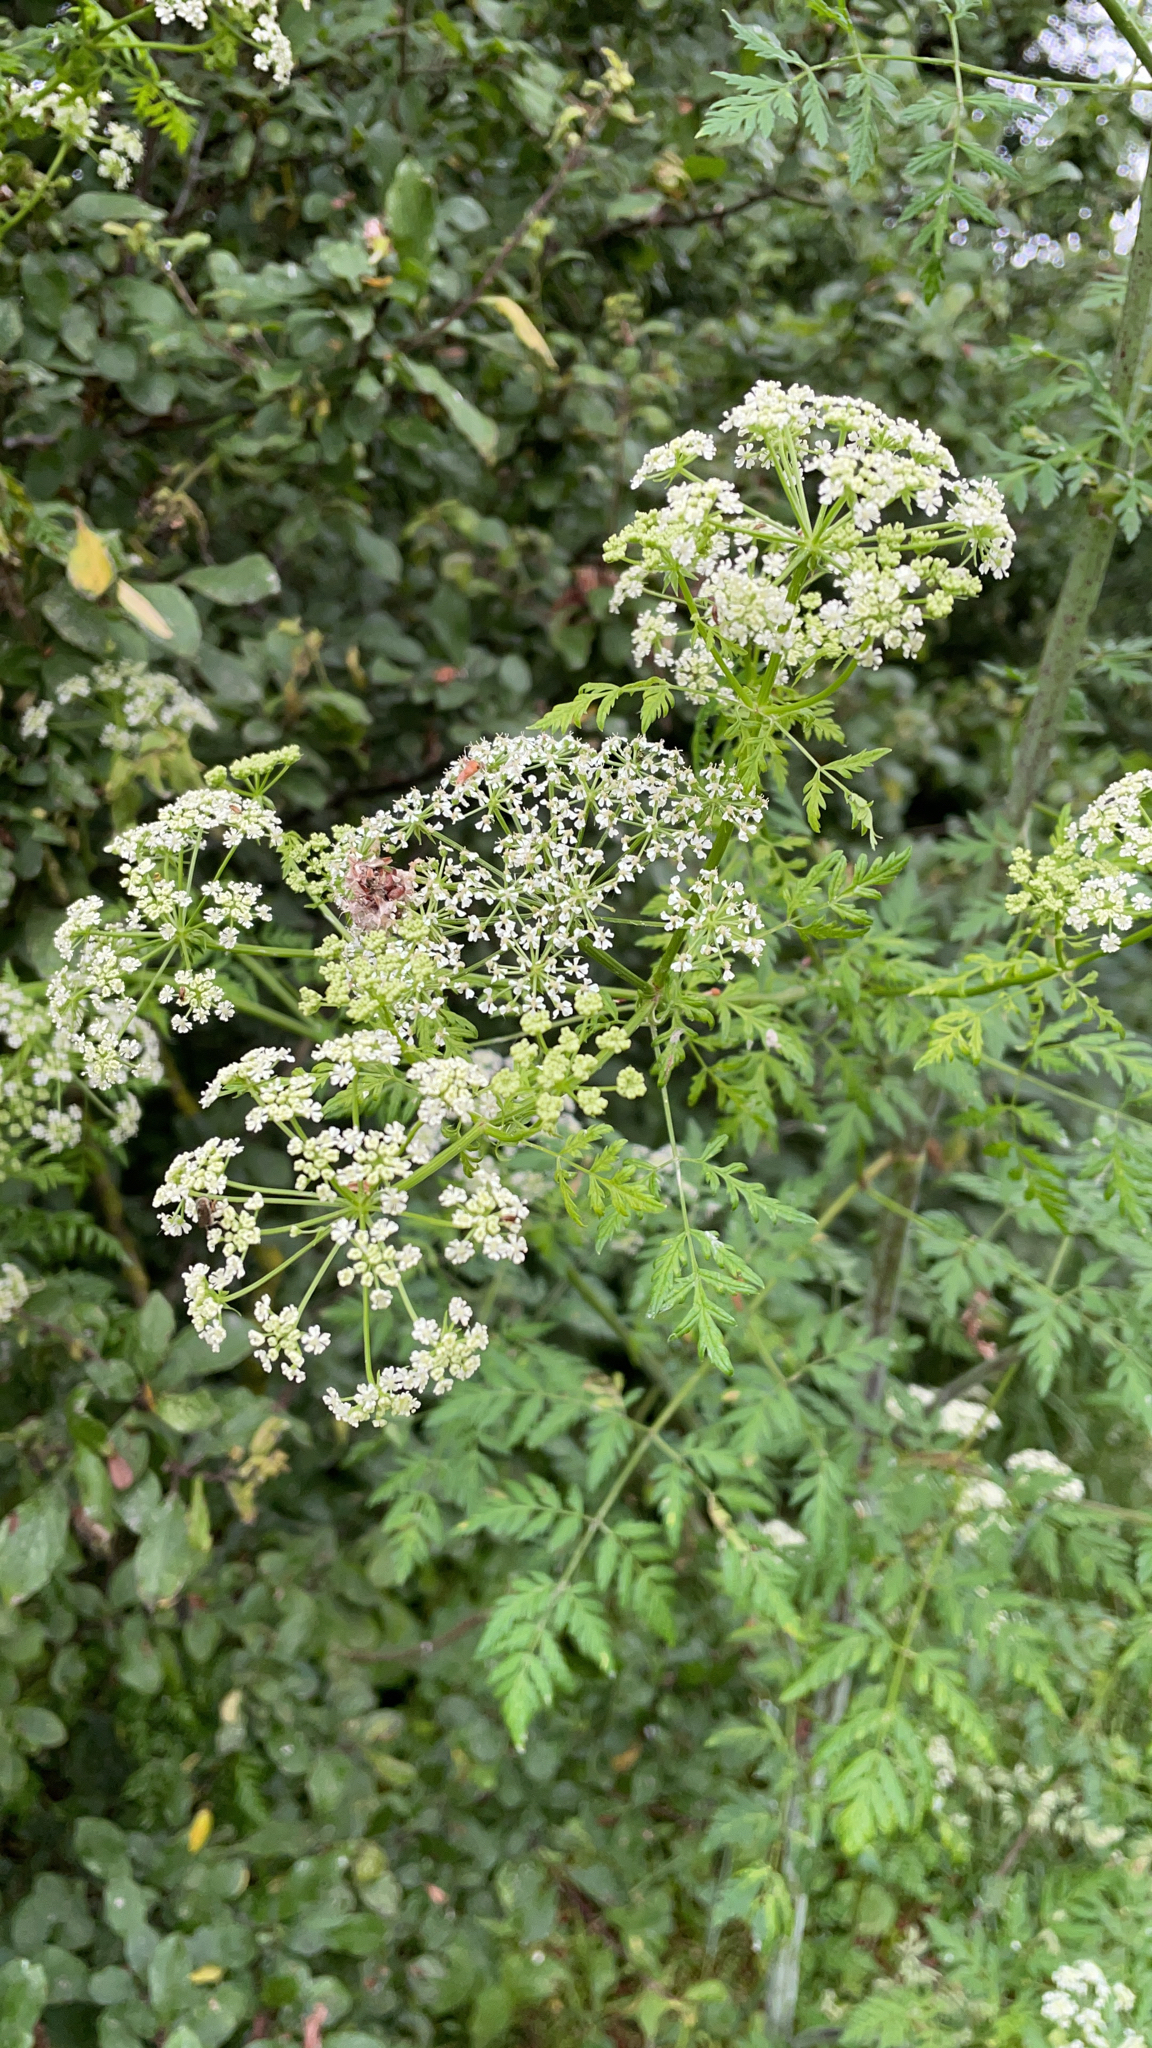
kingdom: Plantae
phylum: Tracheophyta
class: Magnoliopsida
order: Apiales
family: Apiaceae
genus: Conium
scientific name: Conium maculatum
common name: Hemlock
